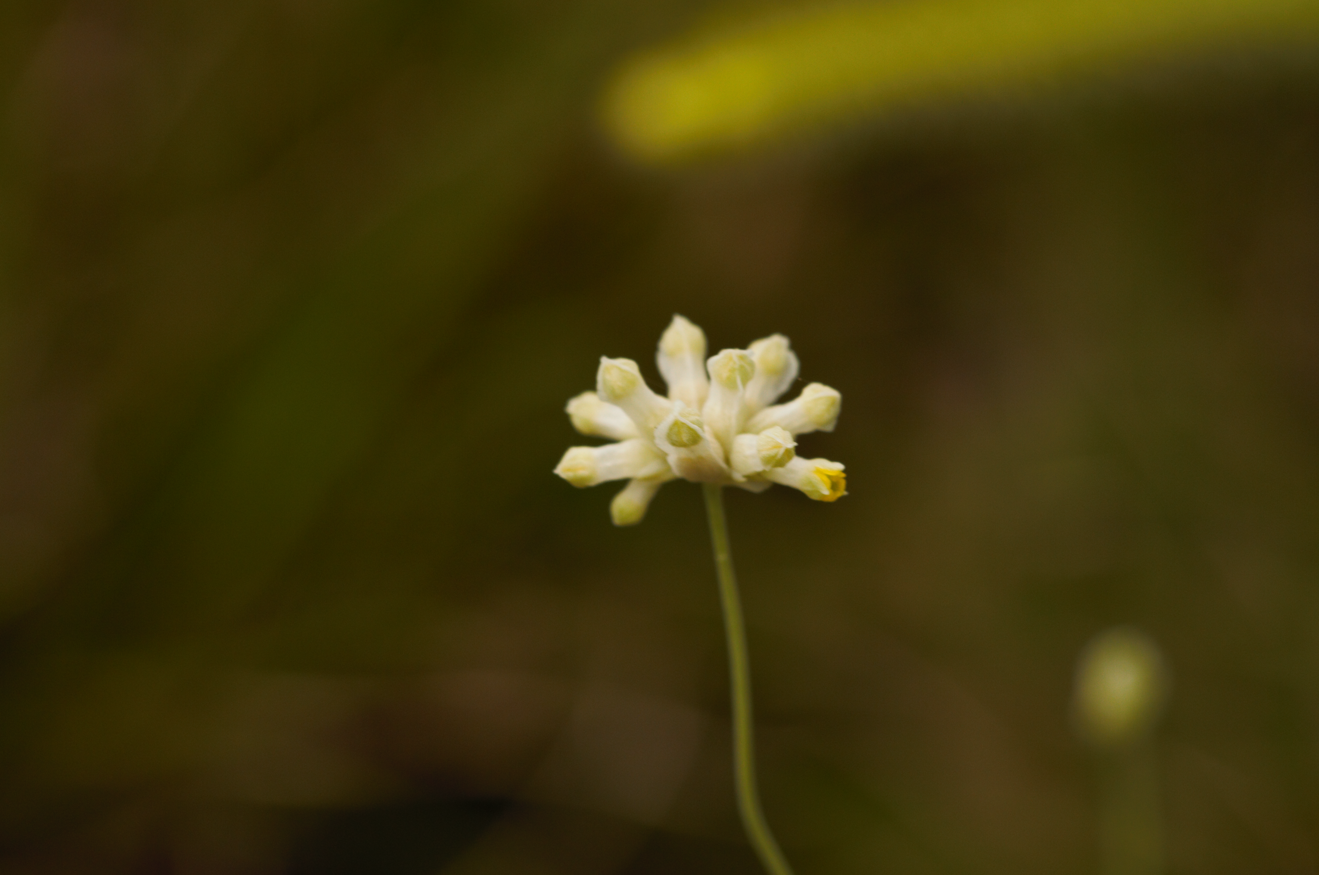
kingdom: Plantae
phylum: Tracheophyta
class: Liliopsida
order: Dioscoreales
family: Burmanniaceae
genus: Burmannia
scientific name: Burmannia capitata
